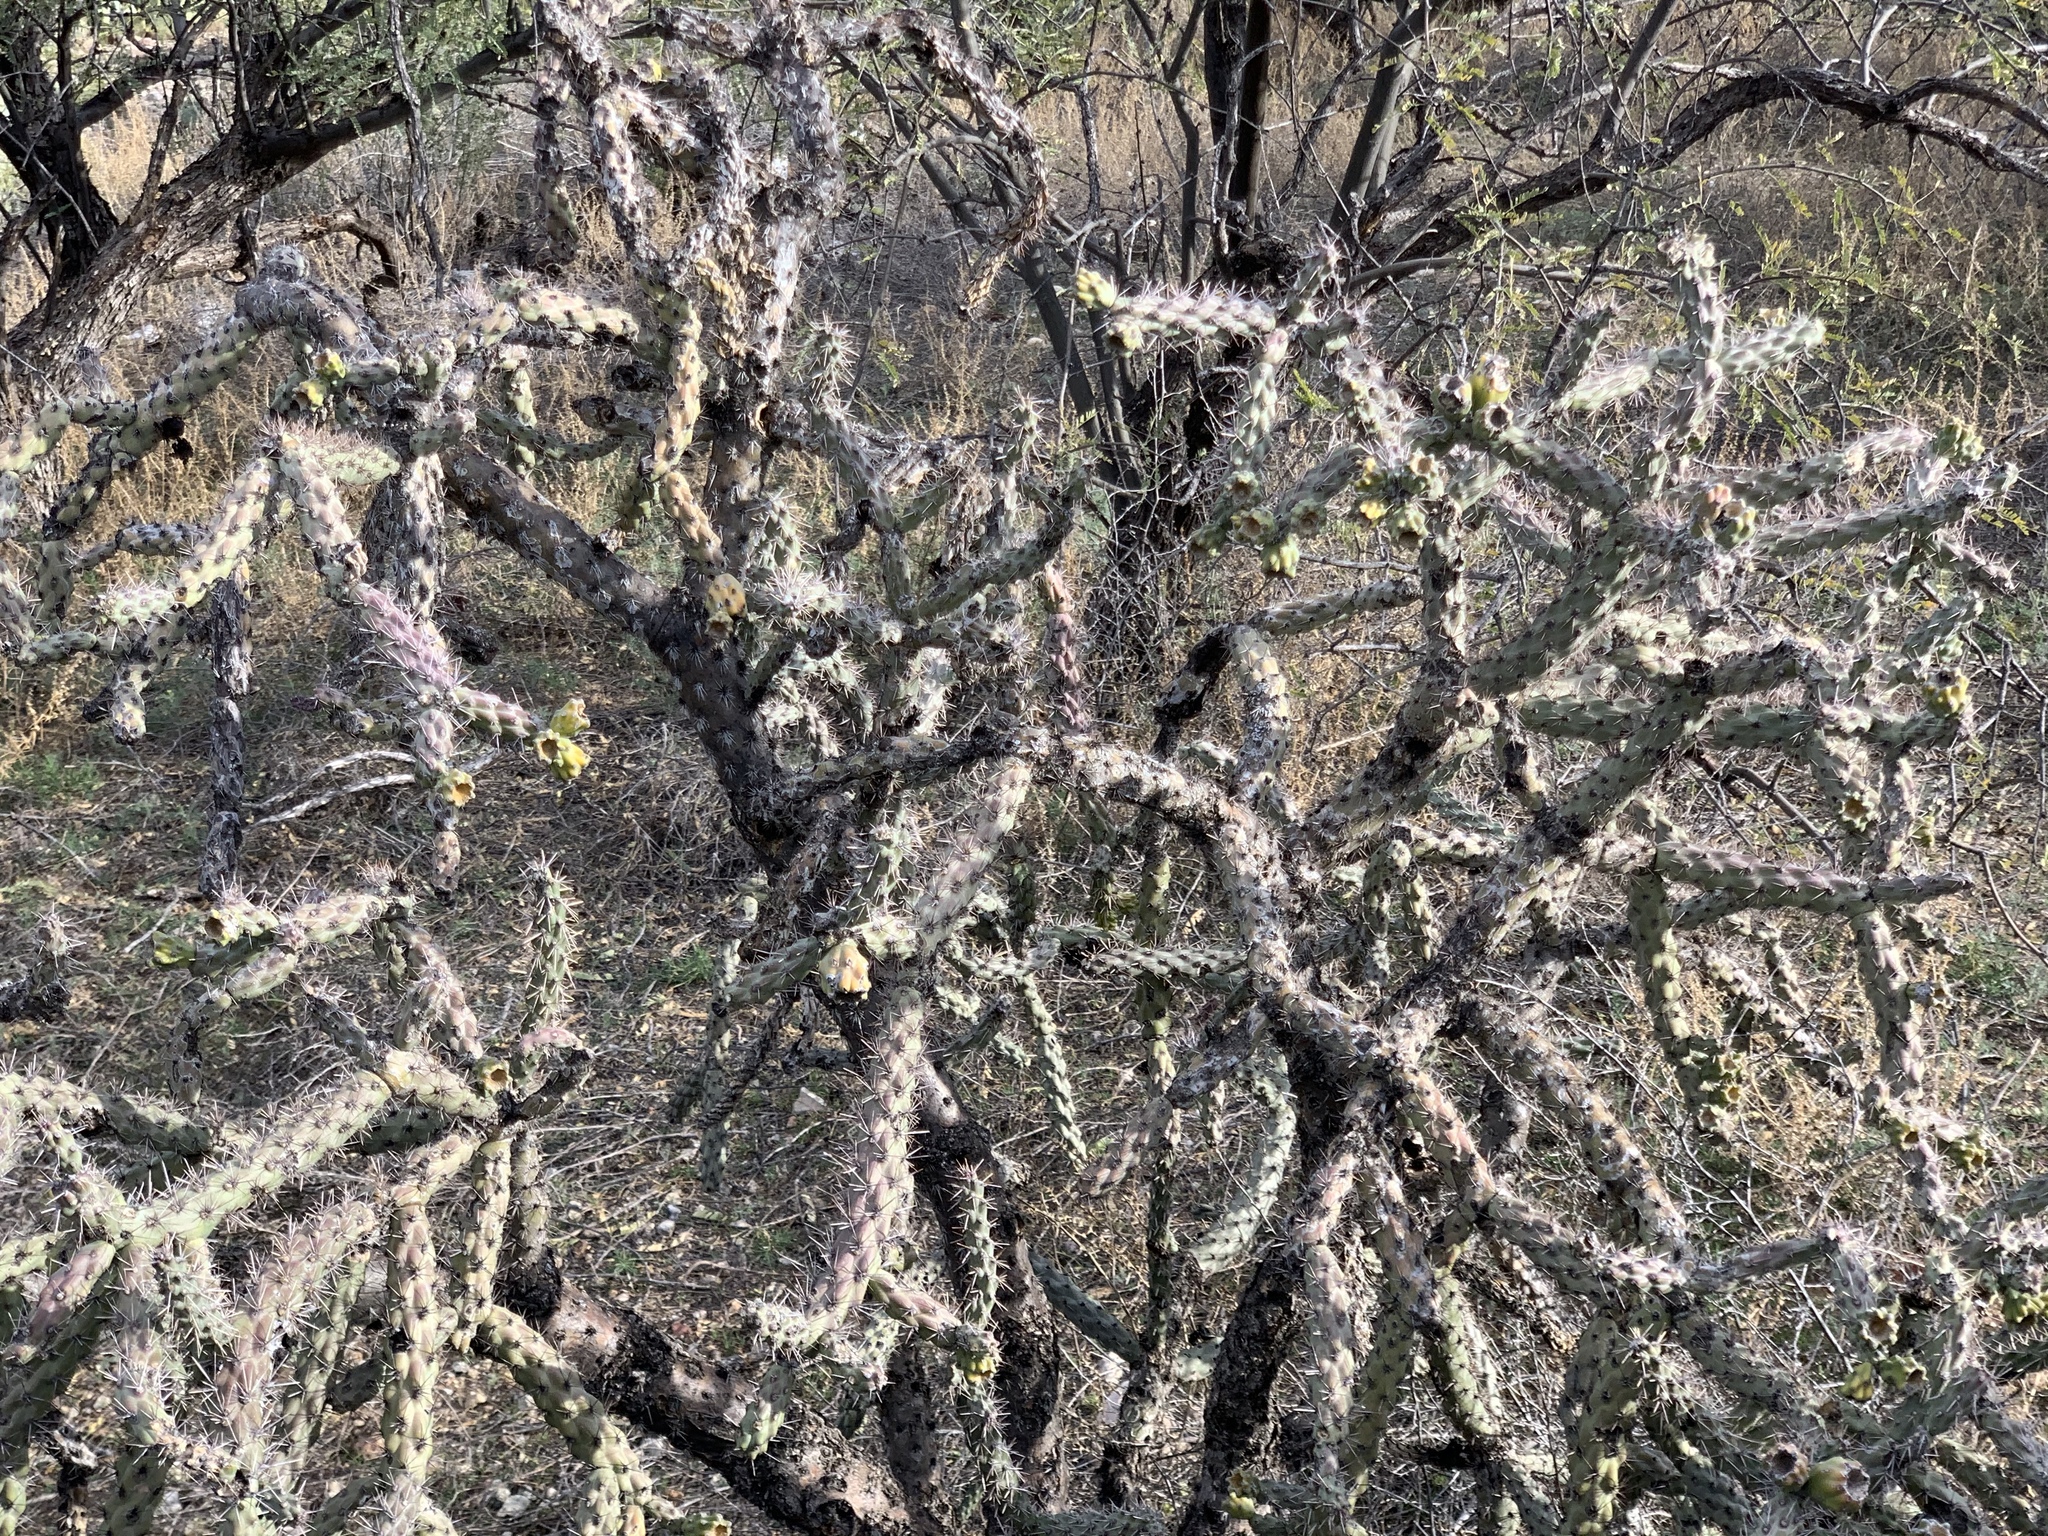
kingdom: Plantae
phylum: Tracheophyta
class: Magnoliopsida
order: Caryophyllales
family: Cactaceae
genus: Cylindropuntia
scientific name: Cylindropuntia thurberi
